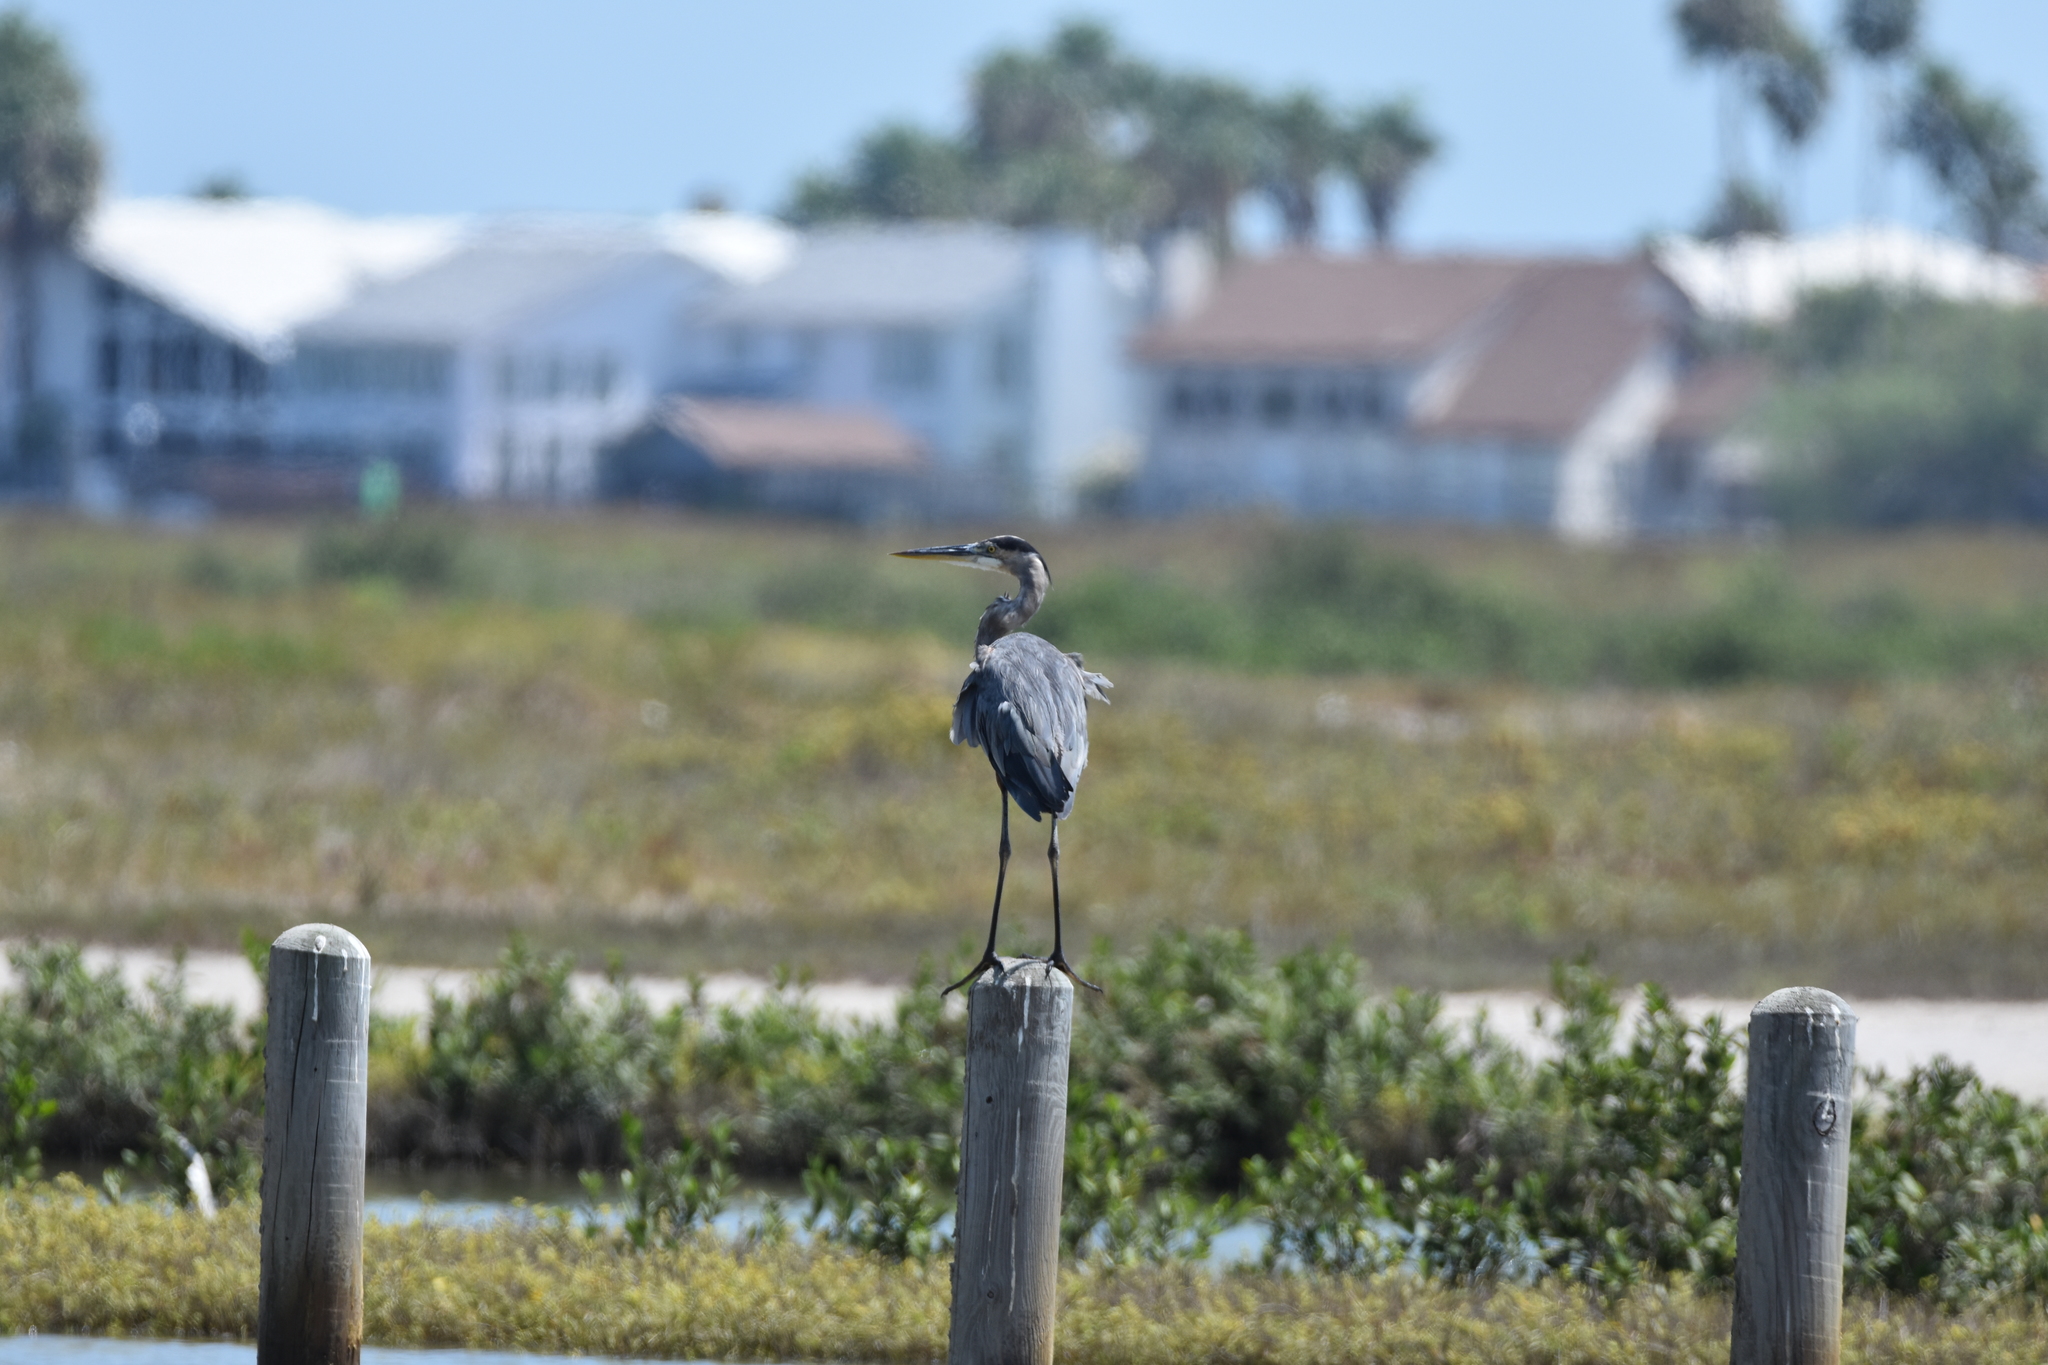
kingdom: Animalia
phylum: Chordata
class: Aves
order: Pelecaniformes
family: Ardeidae
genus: Ardea
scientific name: Ardea herodias
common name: Great blue heron
